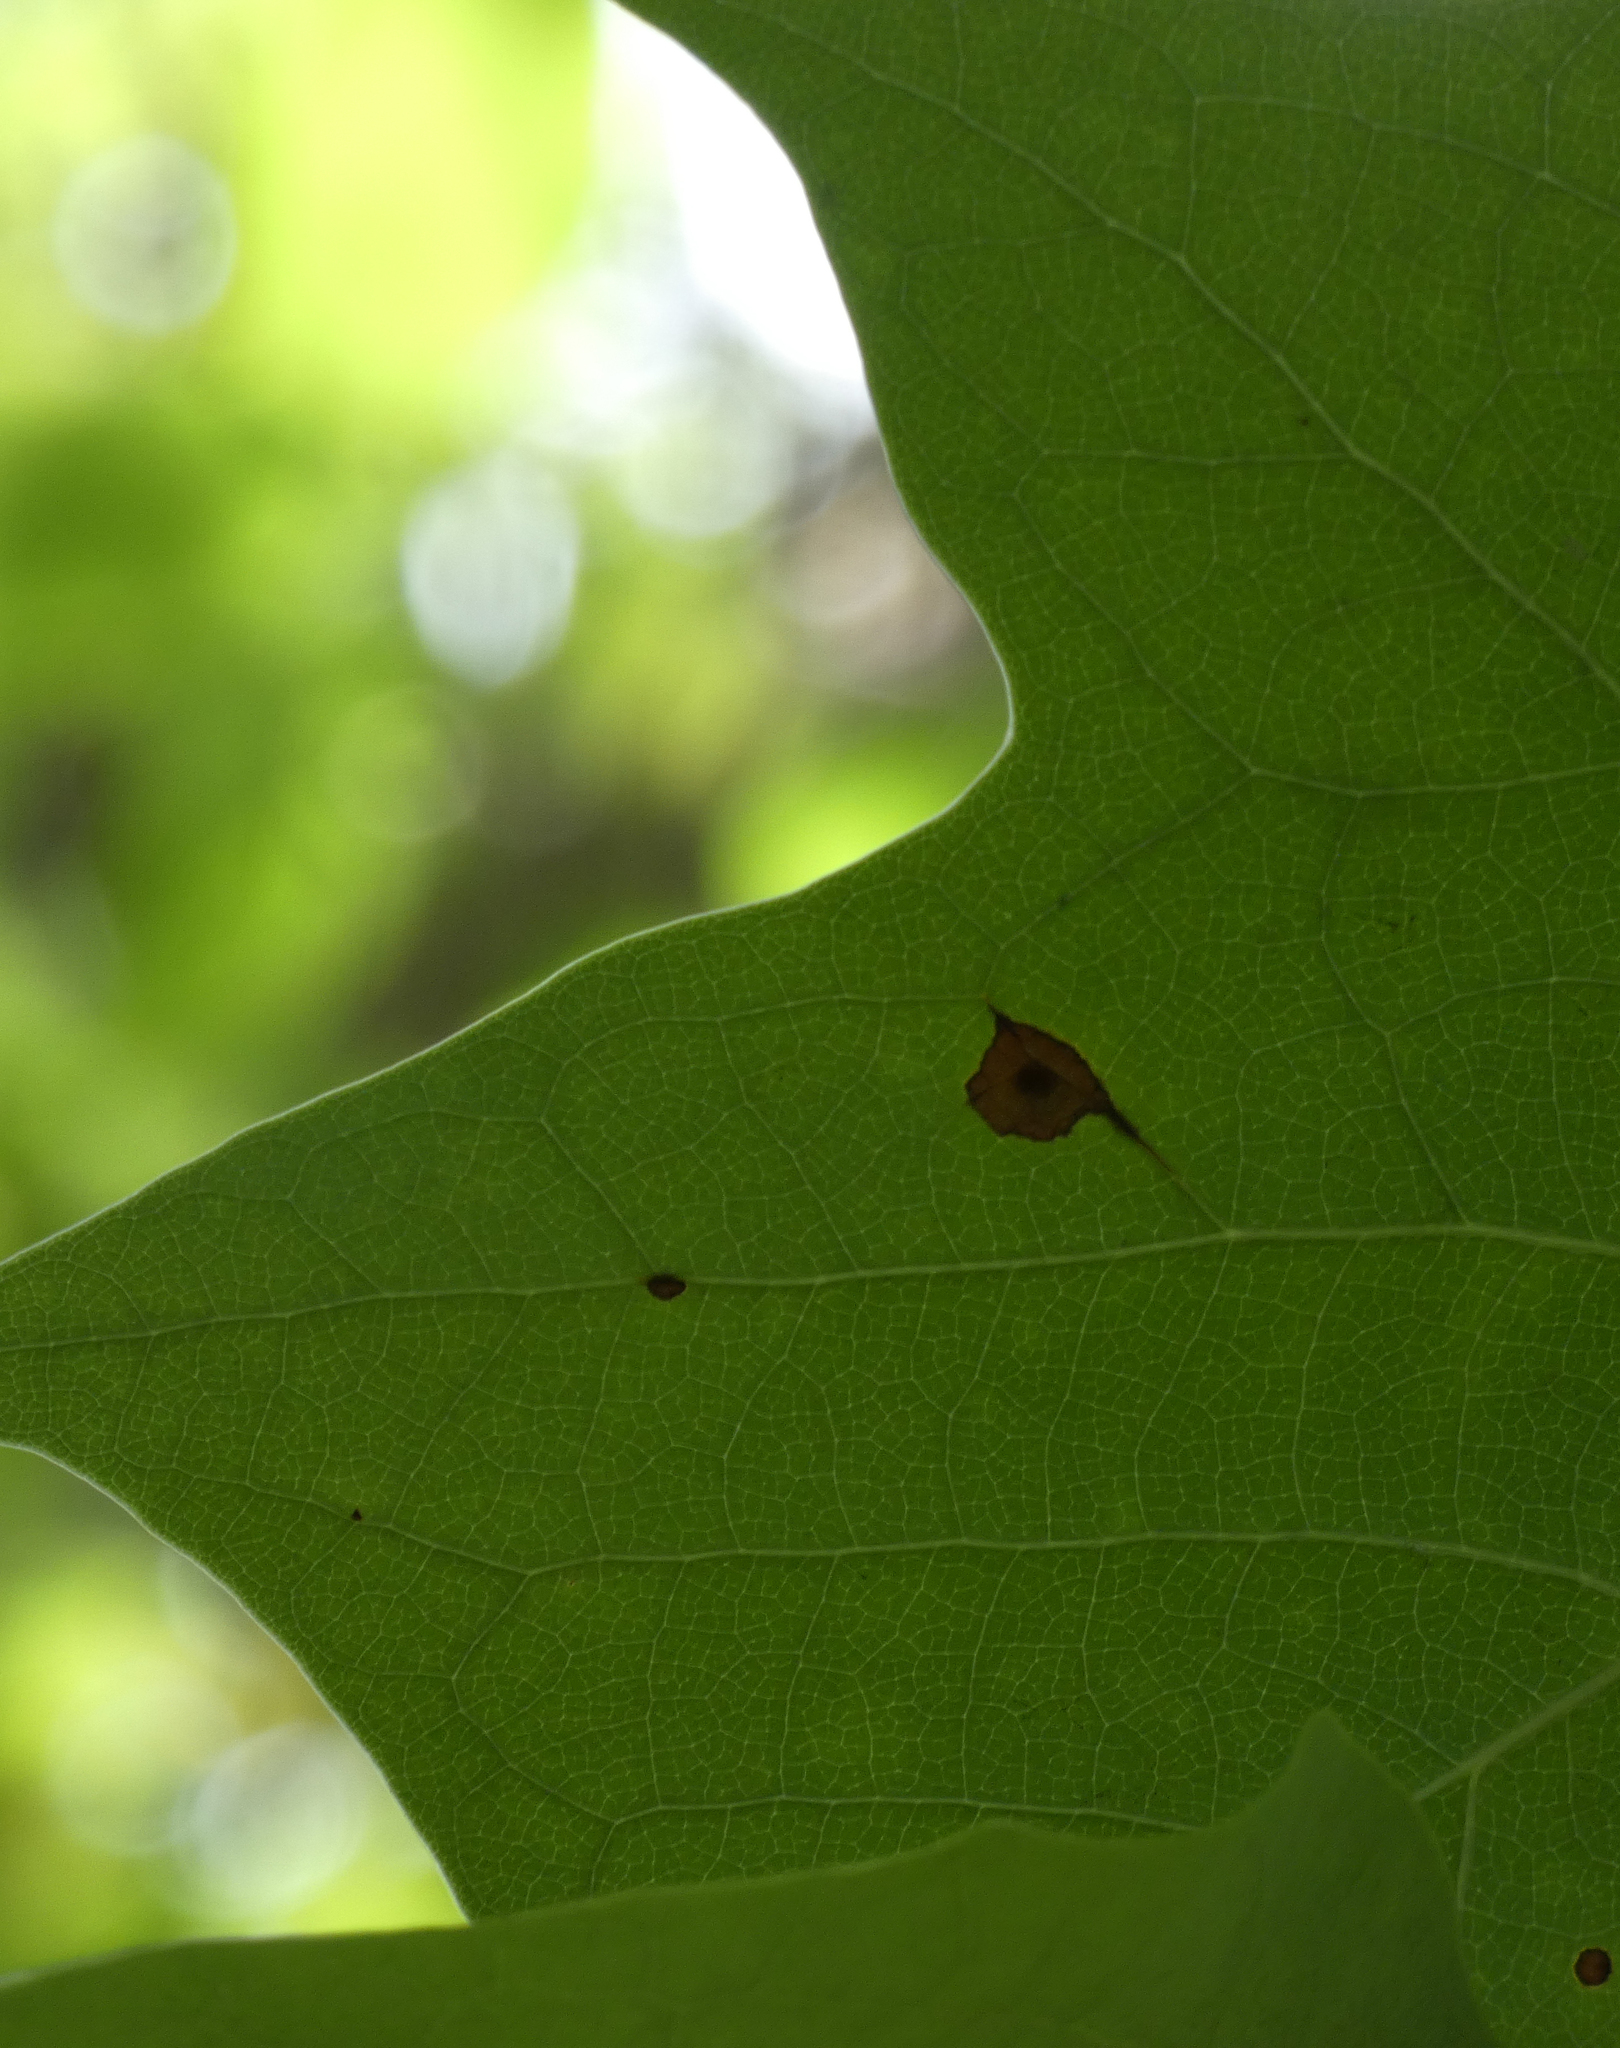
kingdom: Animalia
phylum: Arthropoda
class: Insecta
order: Diptera
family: Cecidomyiidae
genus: Resseliella
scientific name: Resseliella liriodendri
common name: Tulip tree leaf spot gall midge
